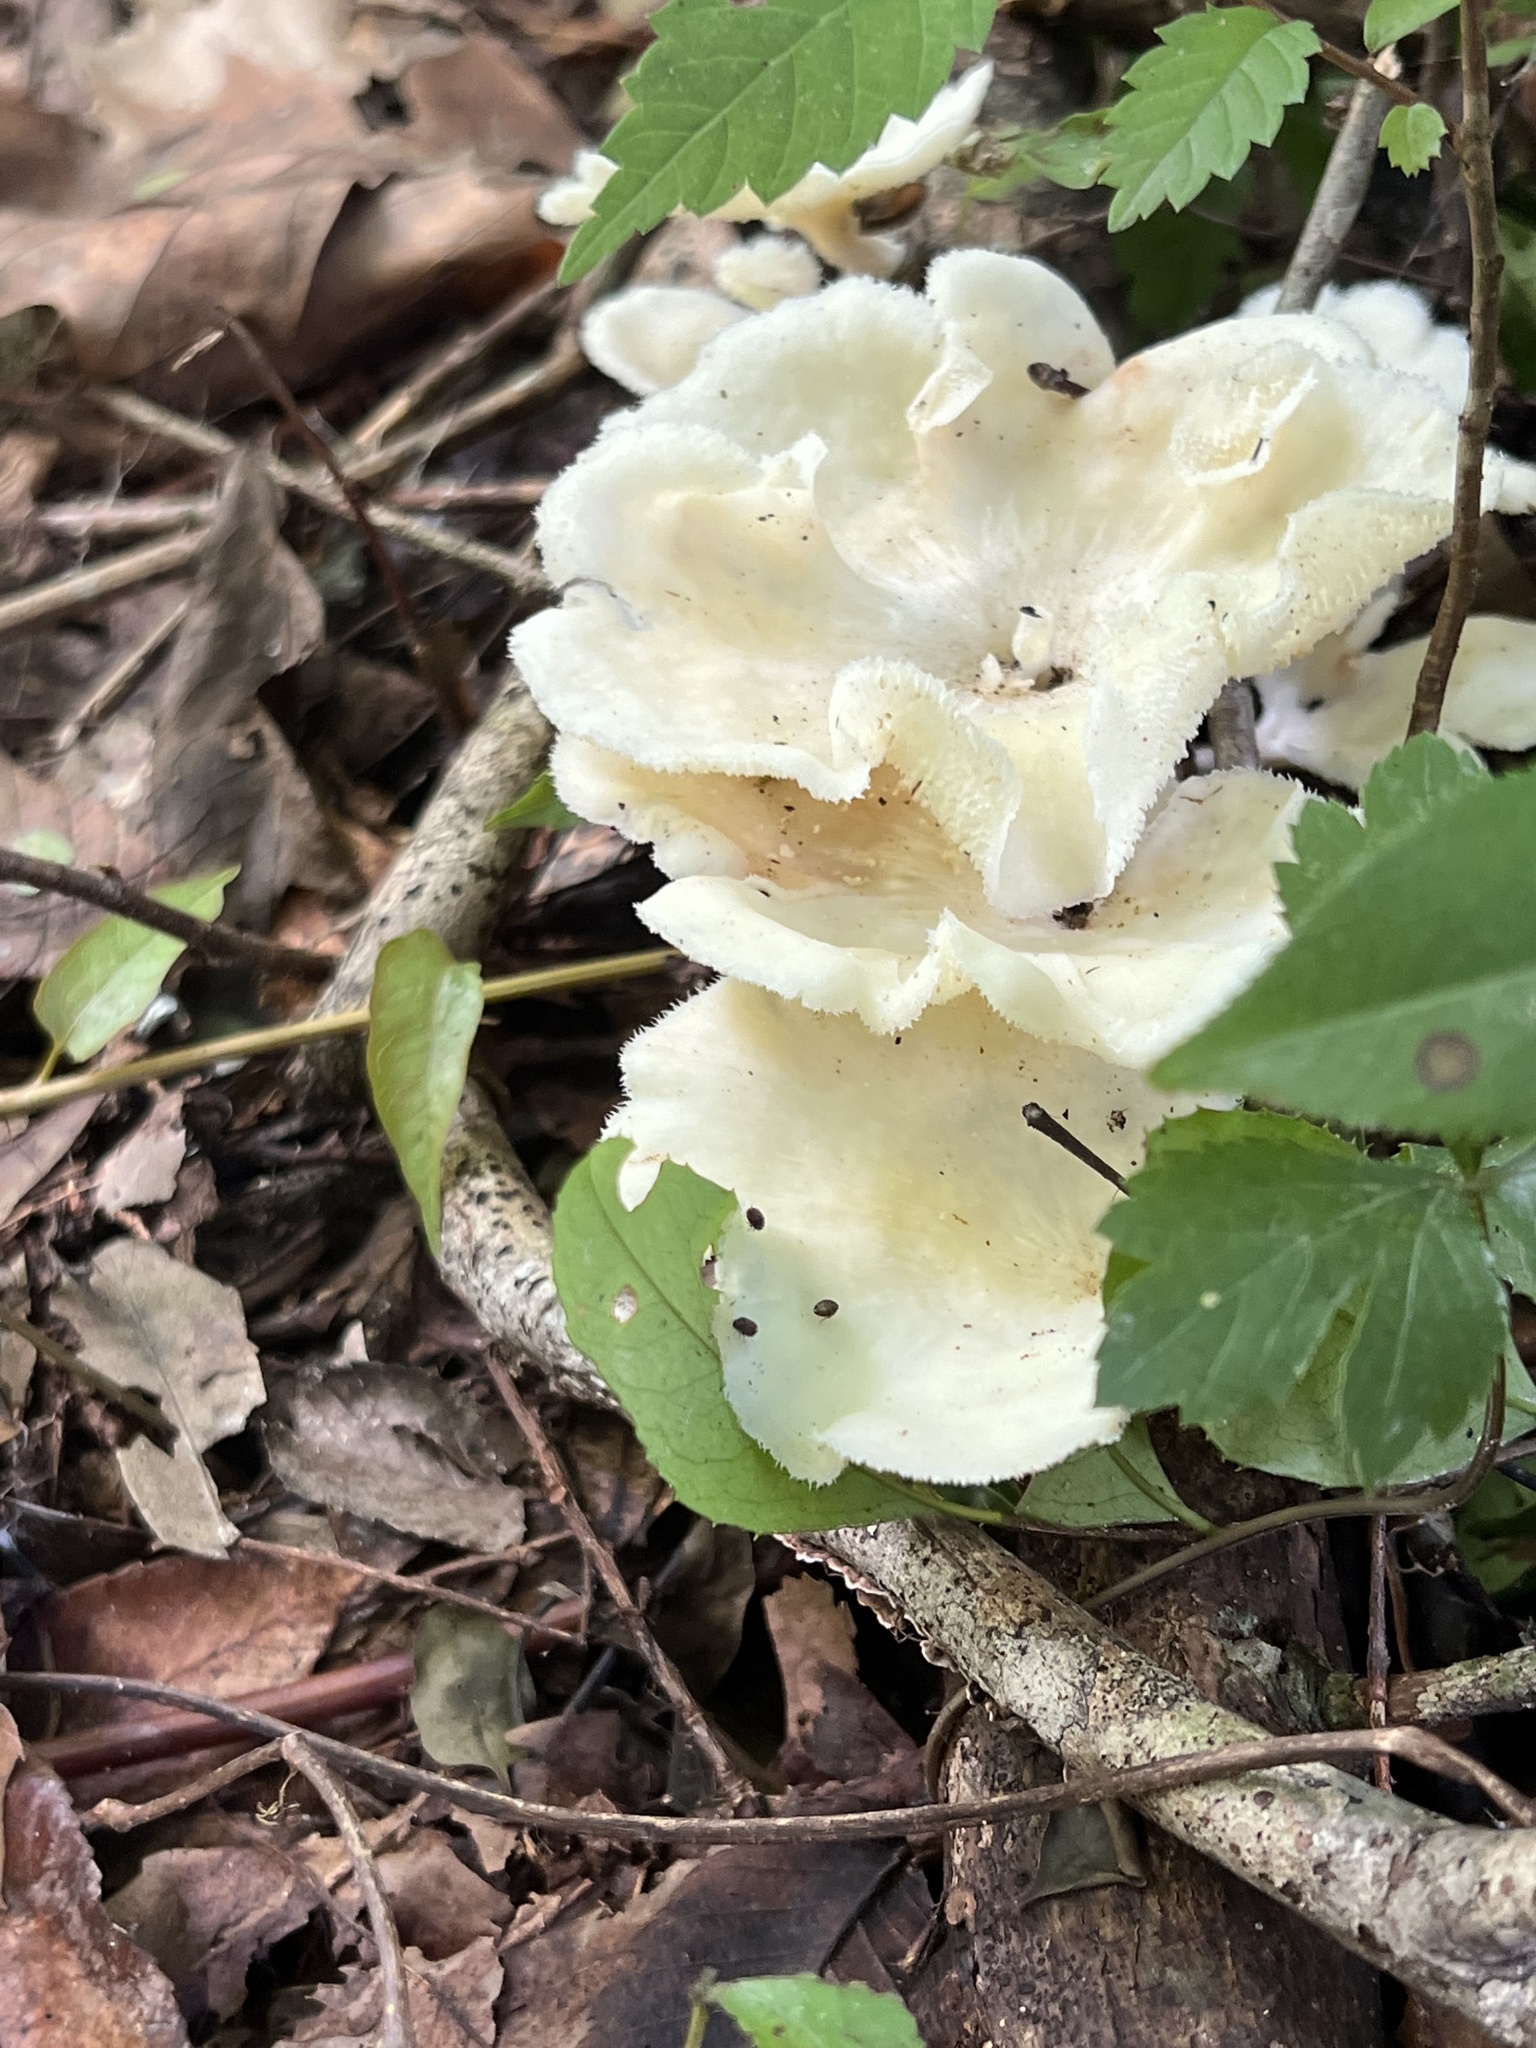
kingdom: Fungi
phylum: Basidiomycota
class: Agaricomycetes
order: Polyporales
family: Polyporaceae
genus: Favolus
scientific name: Favolus tenuiculus
